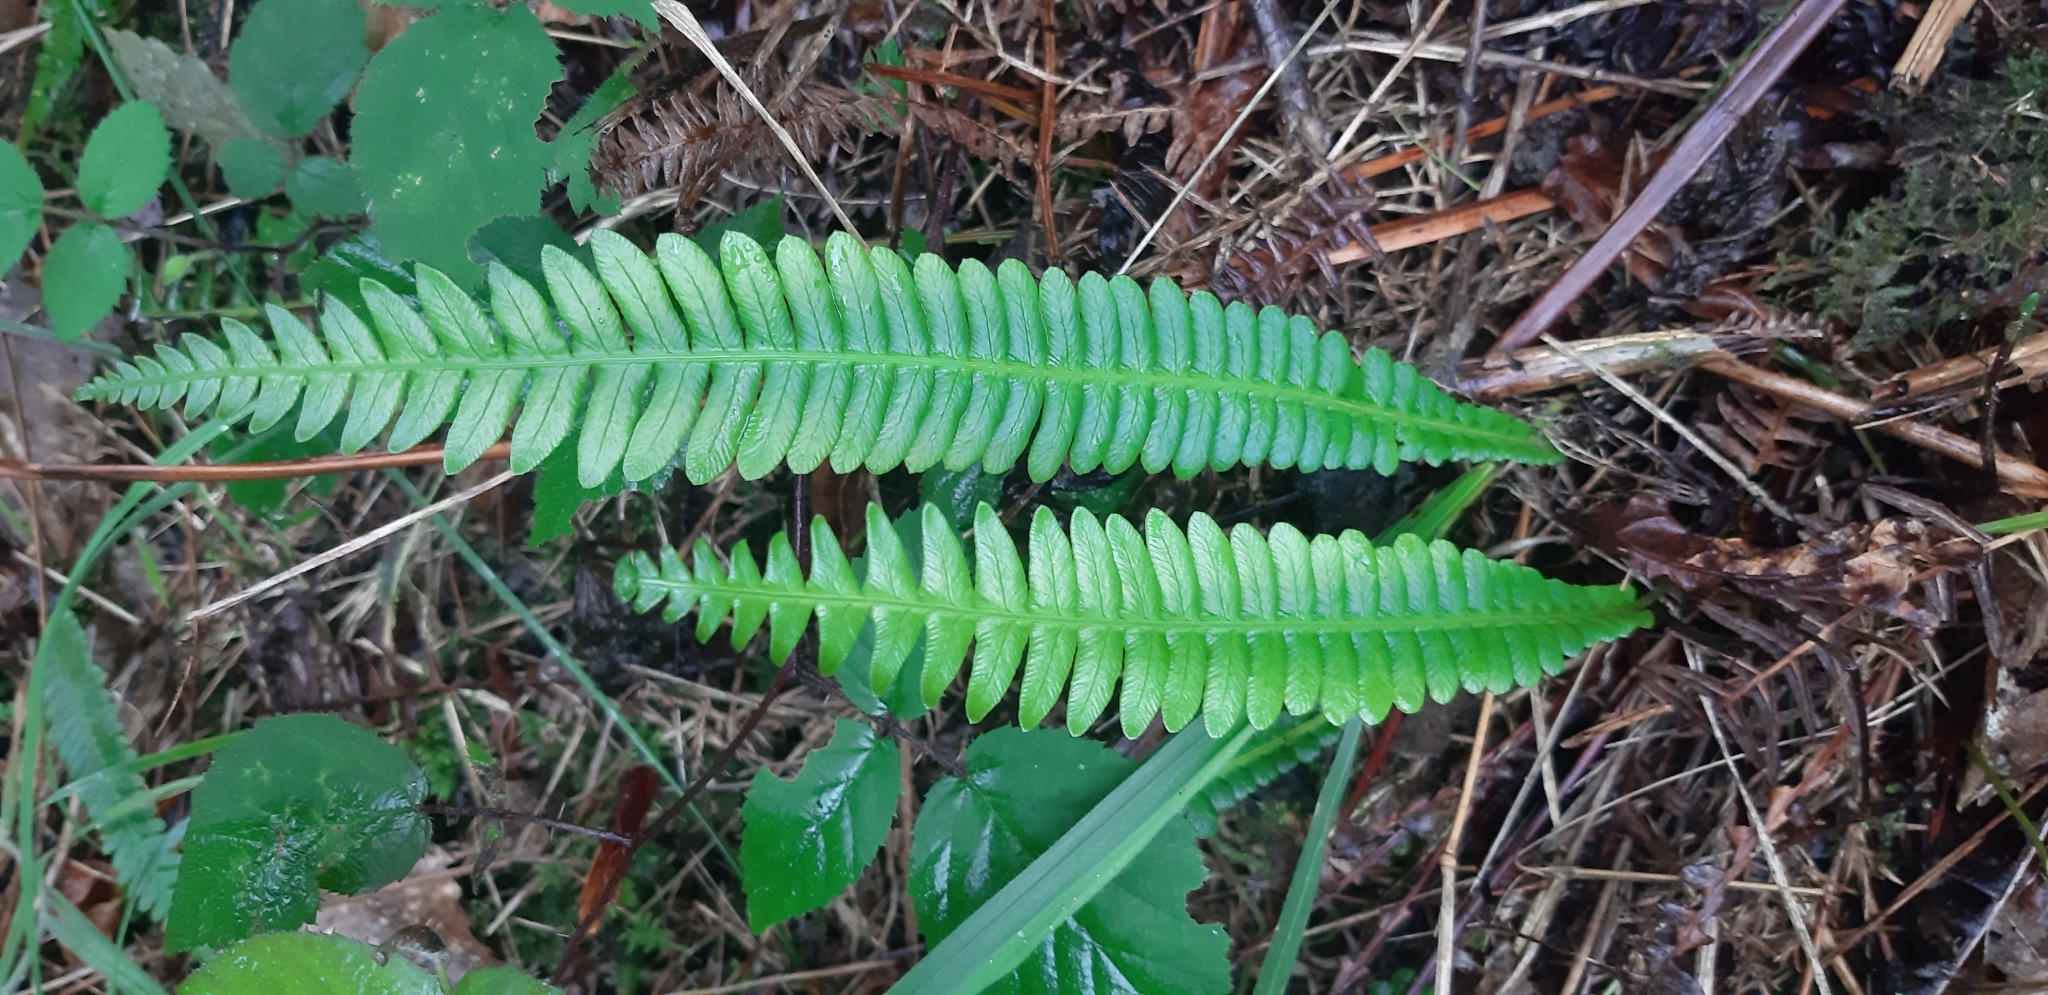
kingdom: Plantae
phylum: Tracheophyta
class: Polypodiopsida
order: Polypodiales
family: Blechnaceae
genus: Struthiopteris
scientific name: Struthiopteris spicant
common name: Deer fern
